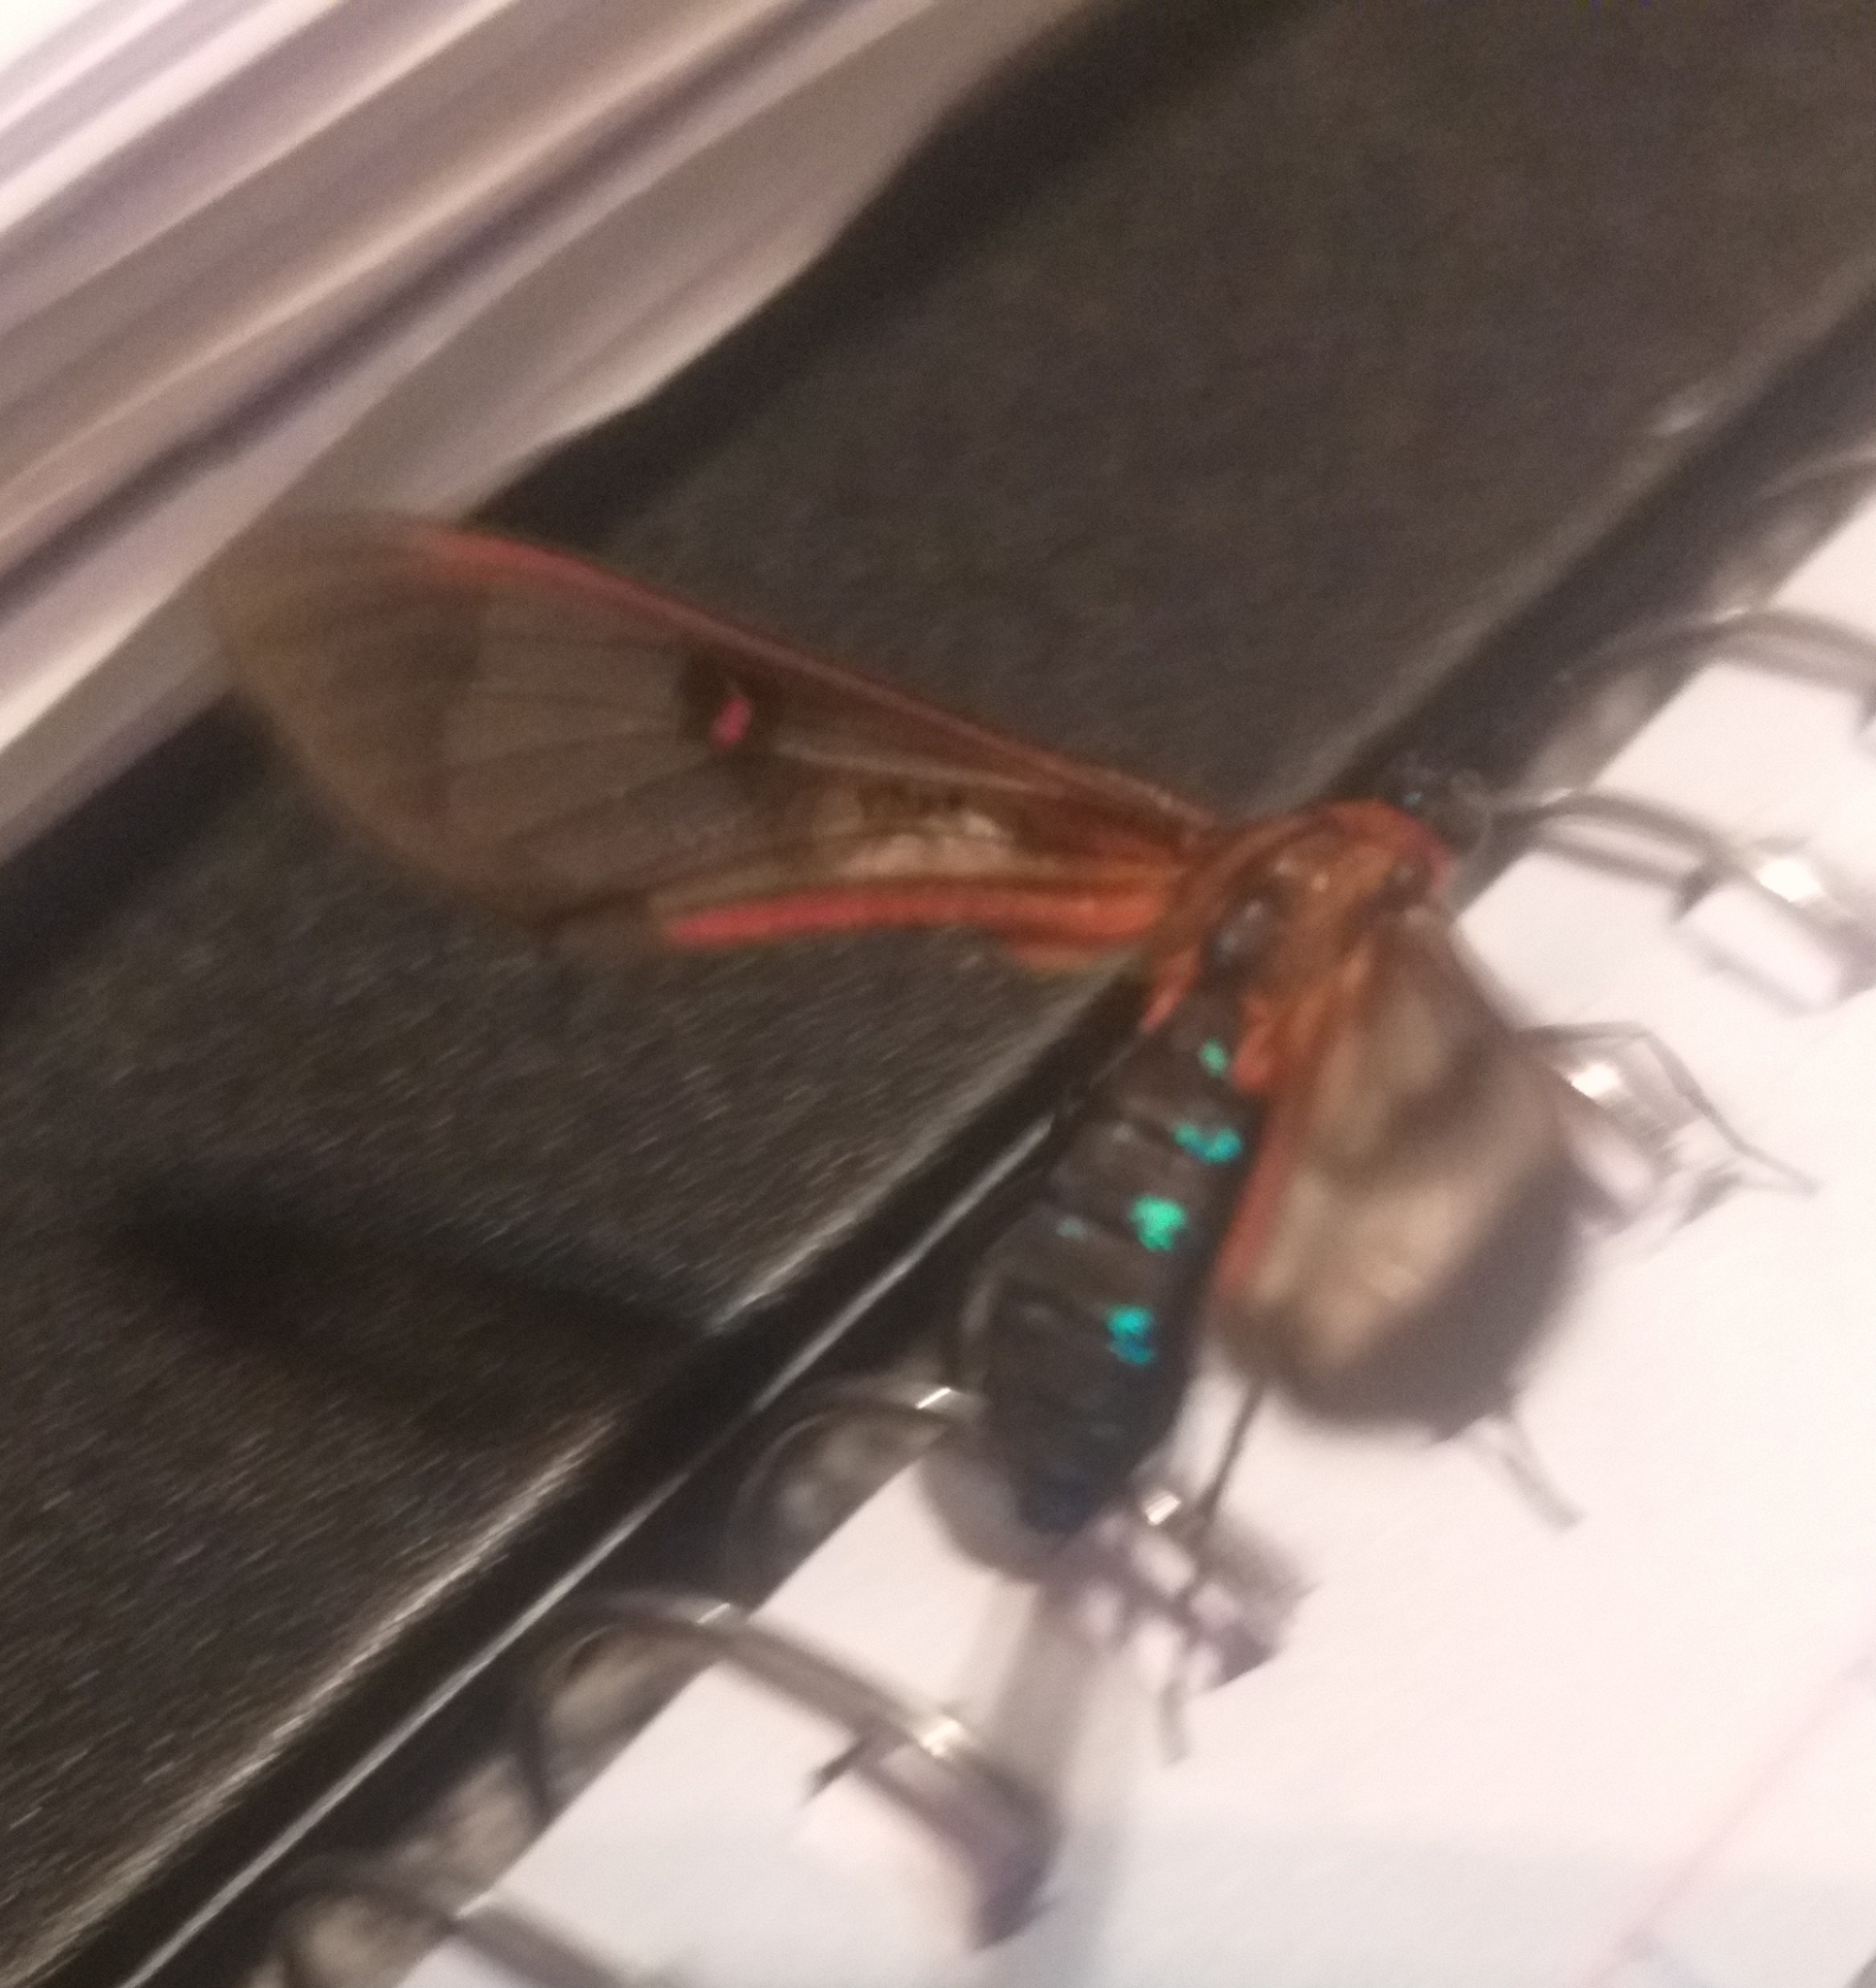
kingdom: Animalia
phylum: Arthropoda
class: Insecta
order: Lepidoptera
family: Erebidae
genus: Lepidoneiva
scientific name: Lepidoneiva
